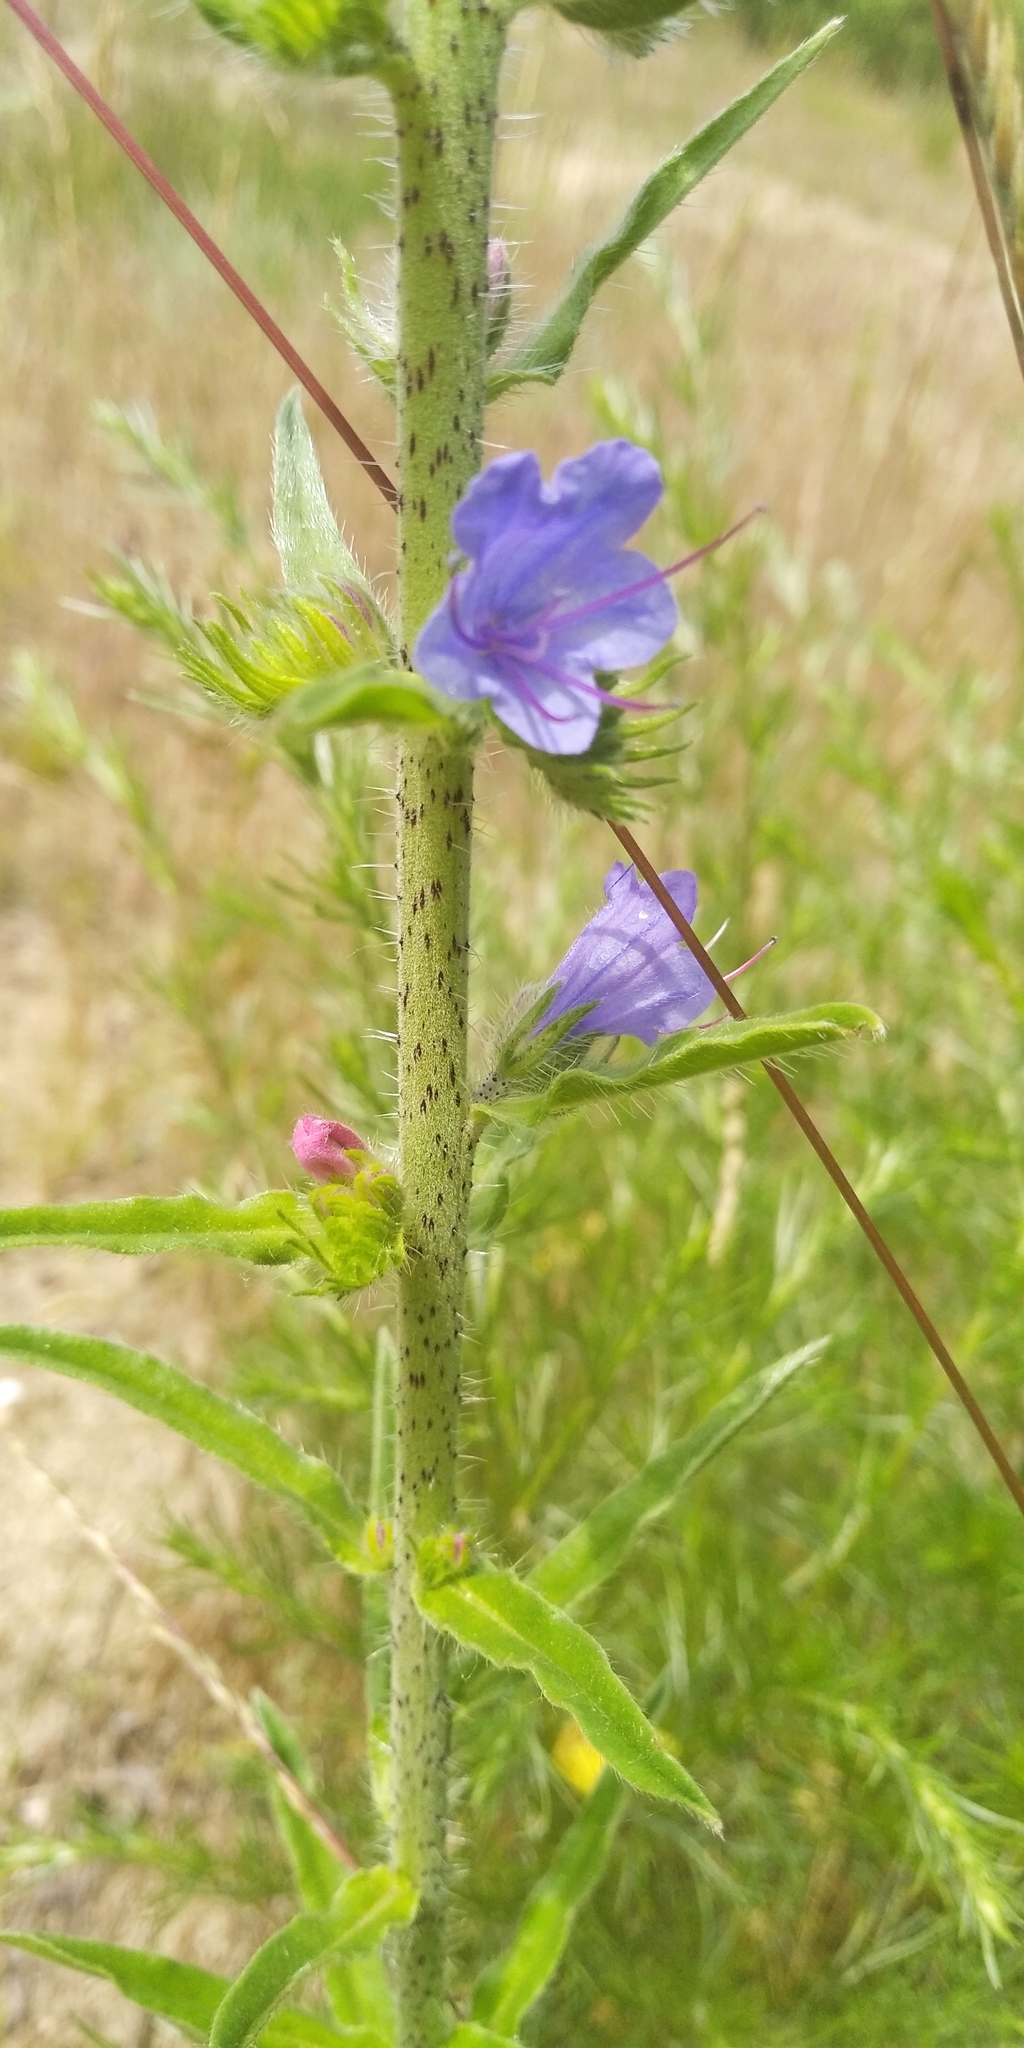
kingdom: Plantae
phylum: Tracheophyta
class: Magnoliopsida
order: Boraginales
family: Boraginaceae
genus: Echium
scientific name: Echium vulgare
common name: Common viper's bugloss
